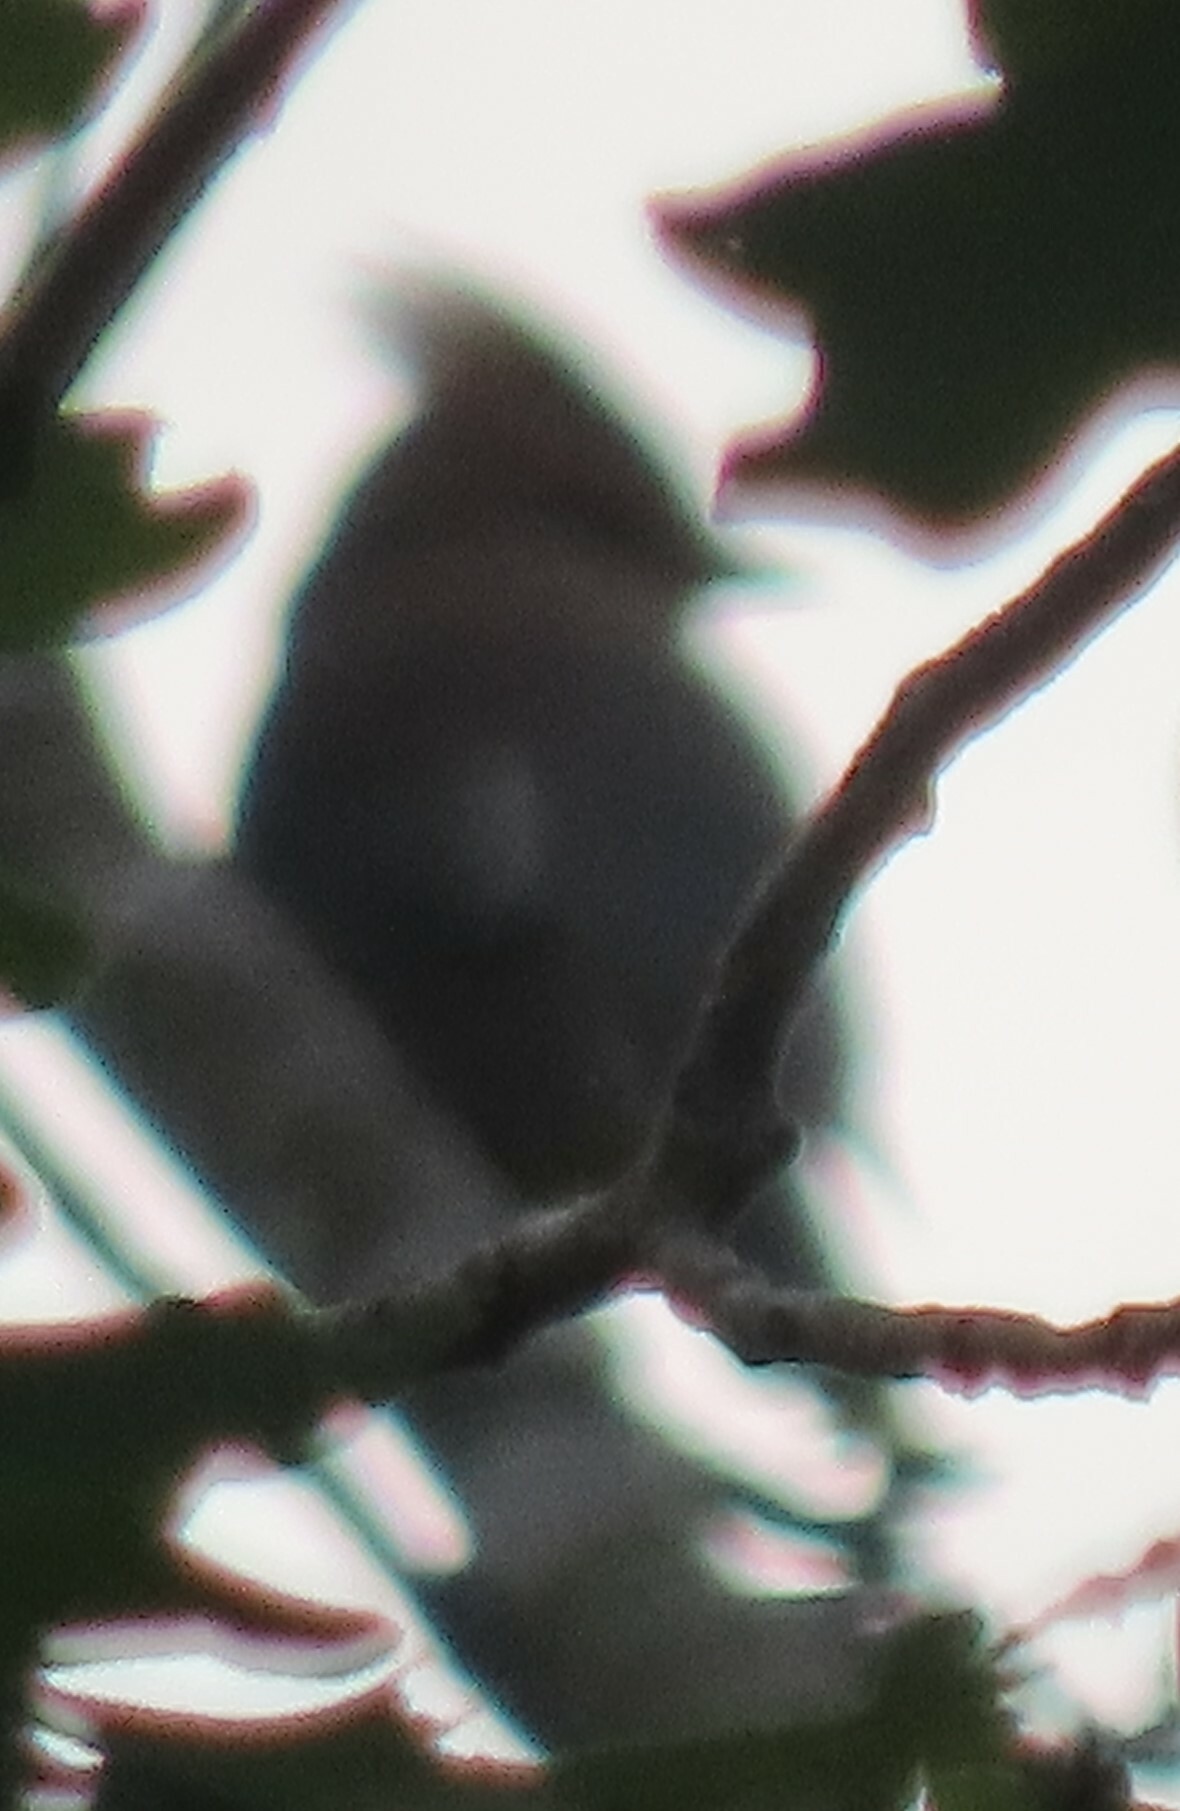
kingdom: Animalia
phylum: Chordata
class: Aves
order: Passeriformes
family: Bombycillidae
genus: Bombycilla
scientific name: Bombycilla cedrorum
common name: Cedar waxwing
